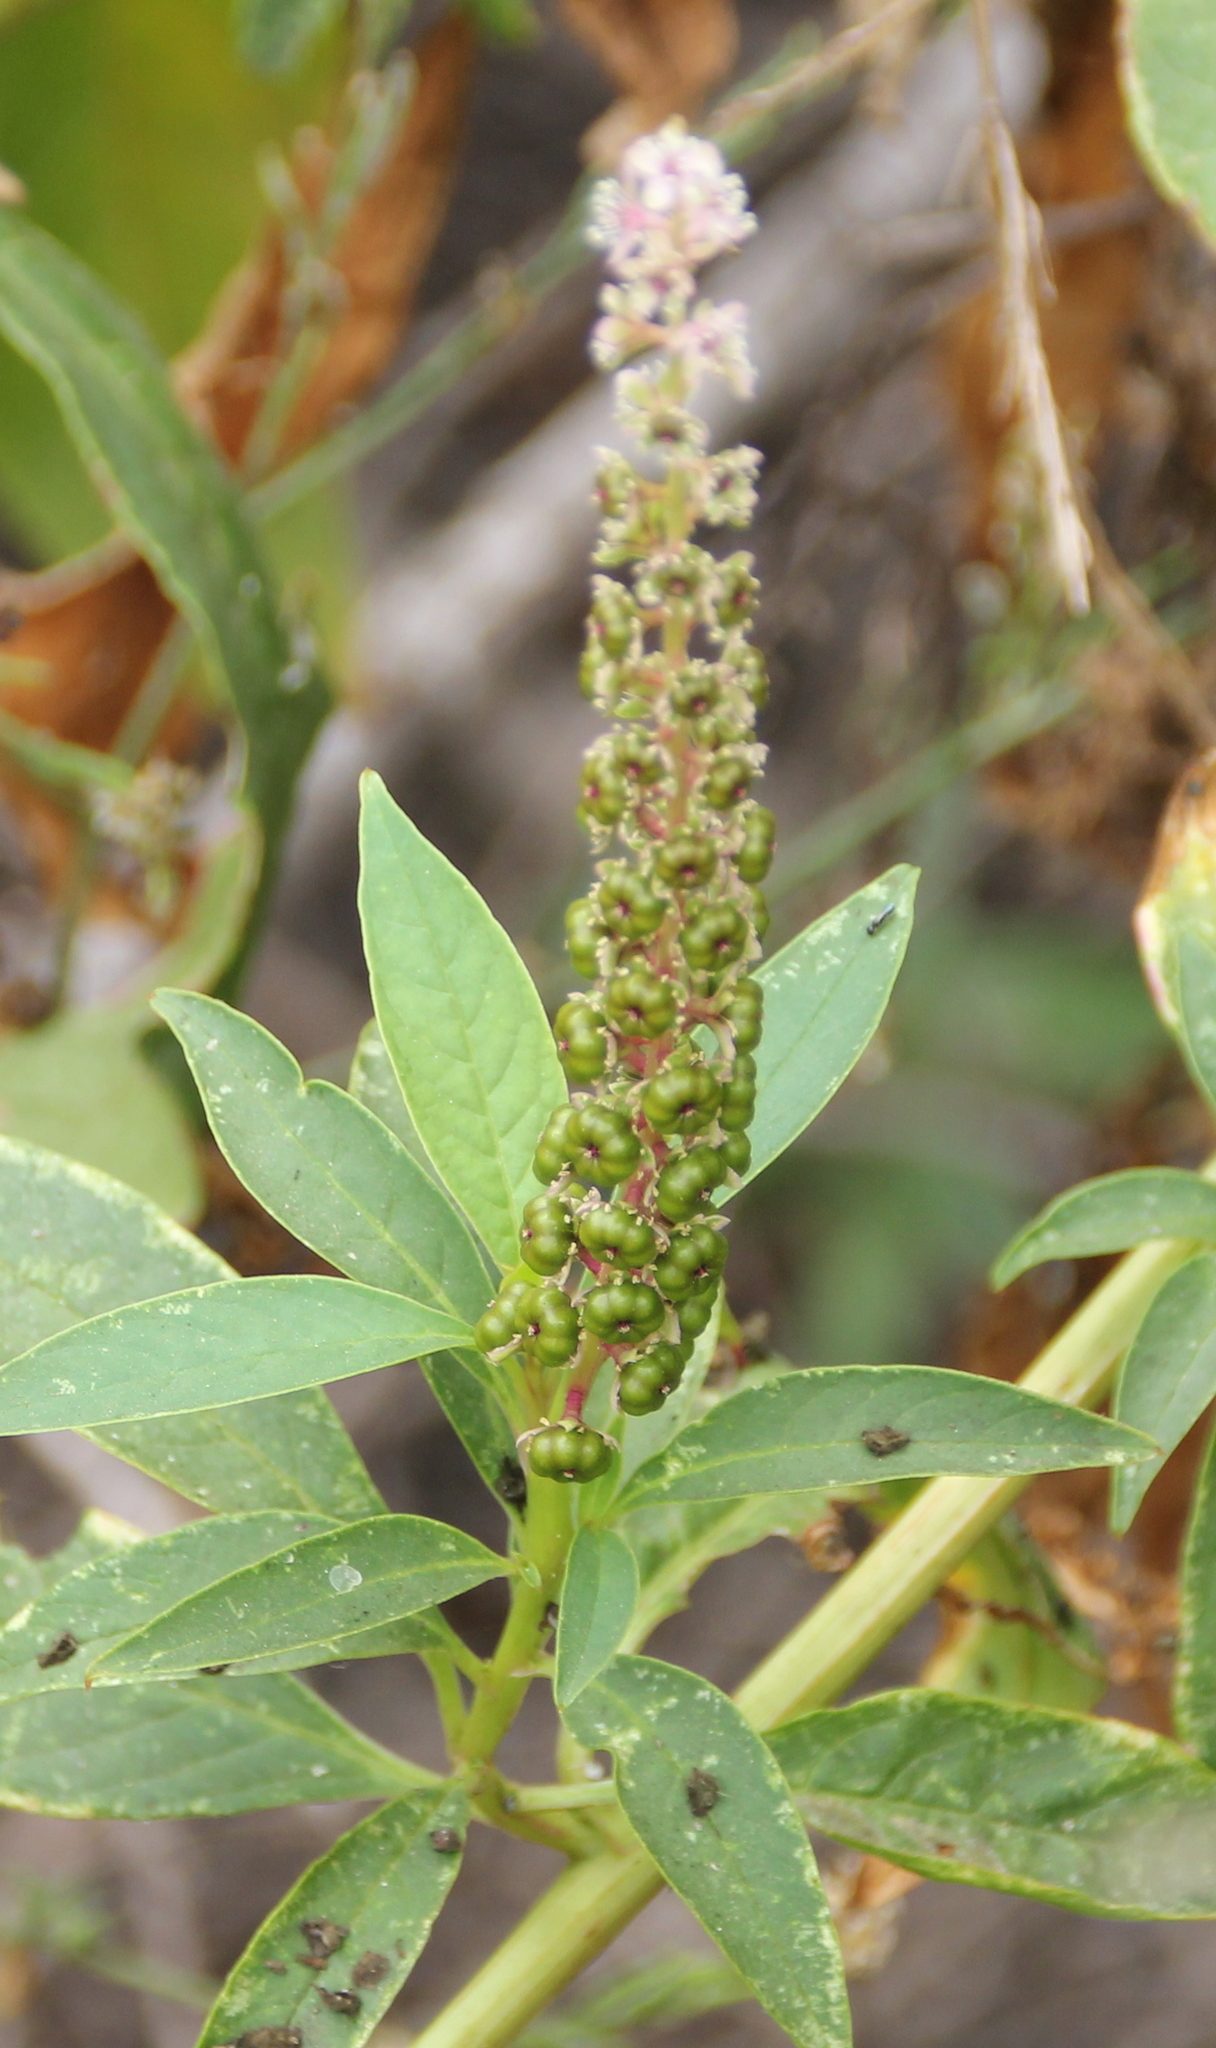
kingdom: Plantae
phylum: Tracheophyta
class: Magnoliopsida
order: Caryophyllales
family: Phytolaccaceae
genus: Phytolacca
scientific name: Phytolacca icosandra
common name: Button pokeweed
